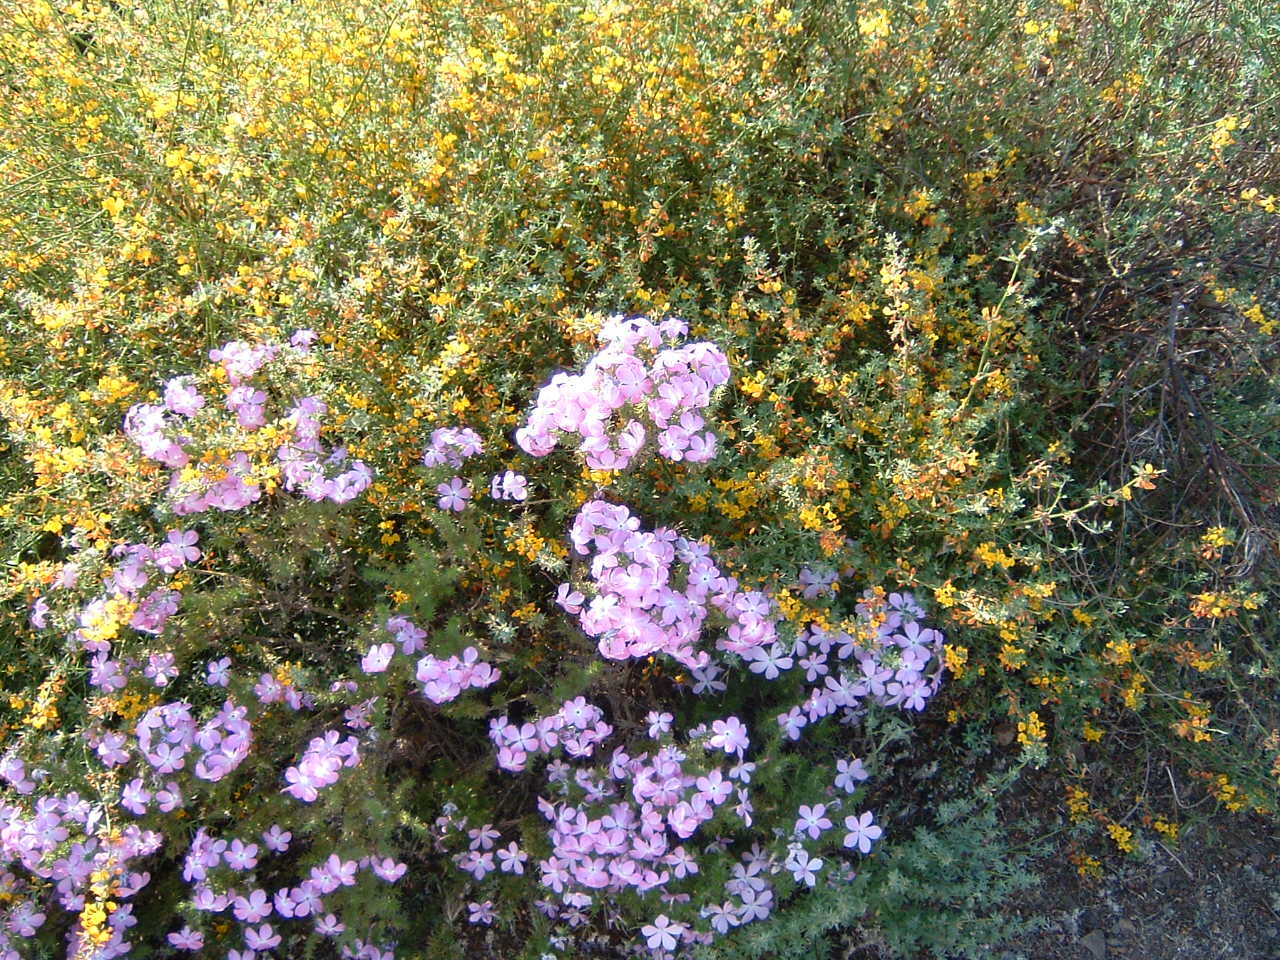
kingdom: Plantae
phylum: Tracheophyta
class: Magnoliopsida
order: Ericales
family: Polemoniaceae
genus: Linanthus
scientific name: Linanthus californicus
